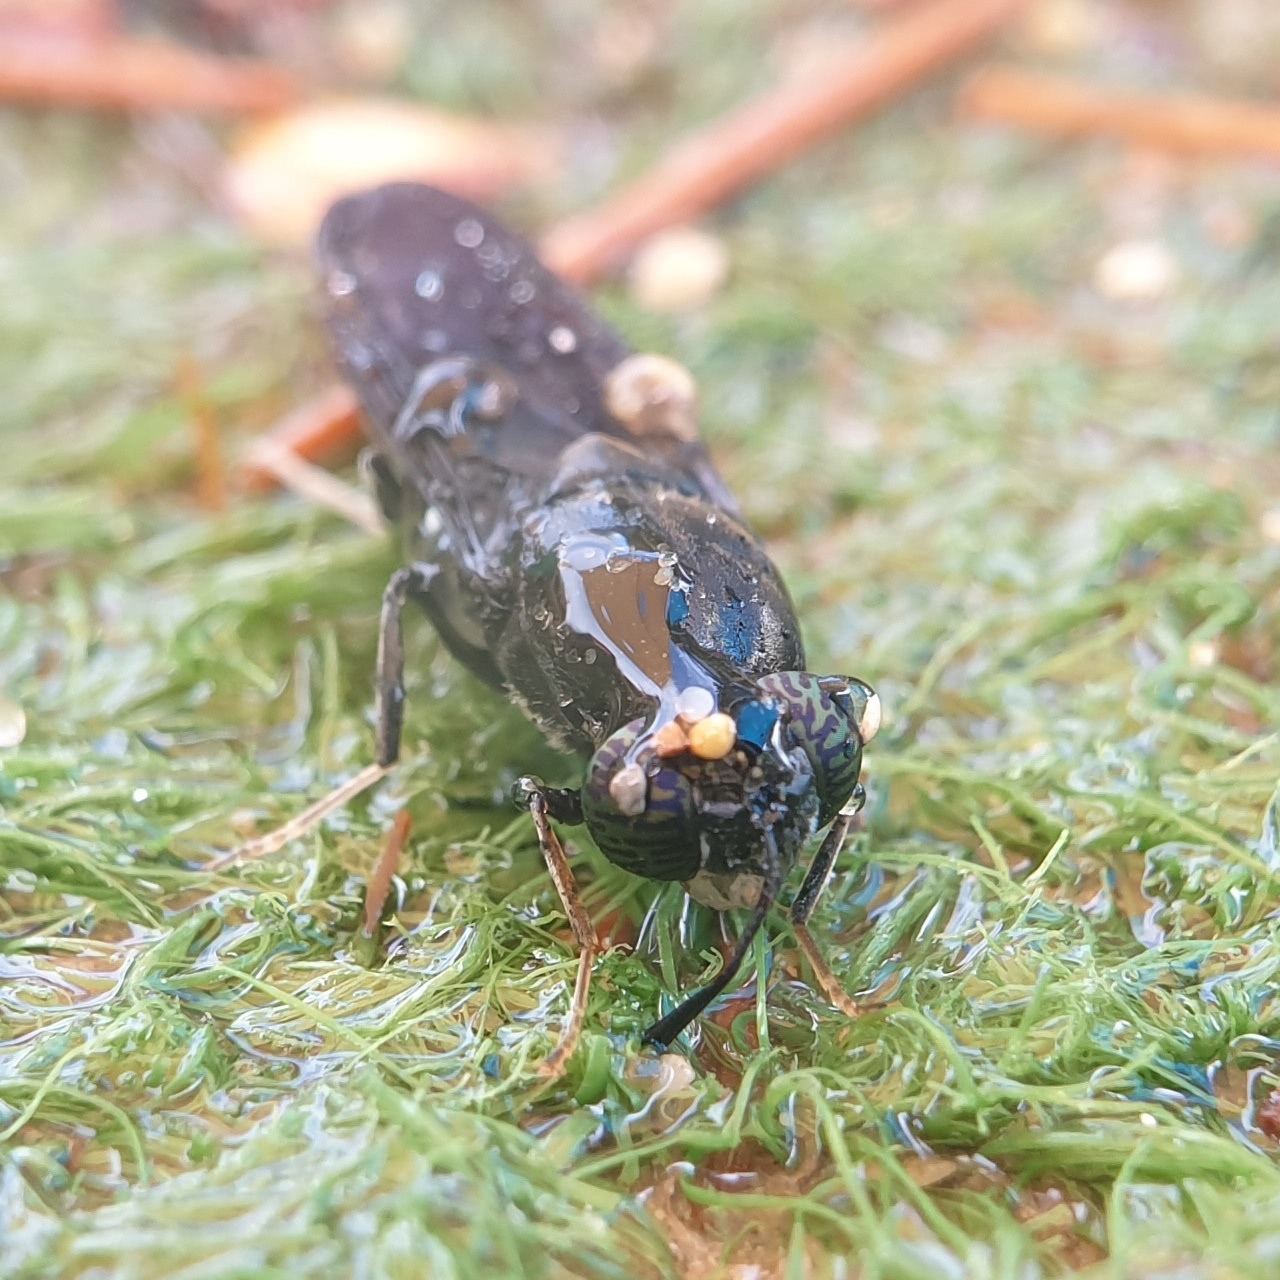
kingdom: Animalia
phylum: Arthropoda
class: Insecta
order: Diptera
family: Stratiomyidae
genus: Hermetia
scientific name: Hermetia illucens
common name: Black soldier fly
